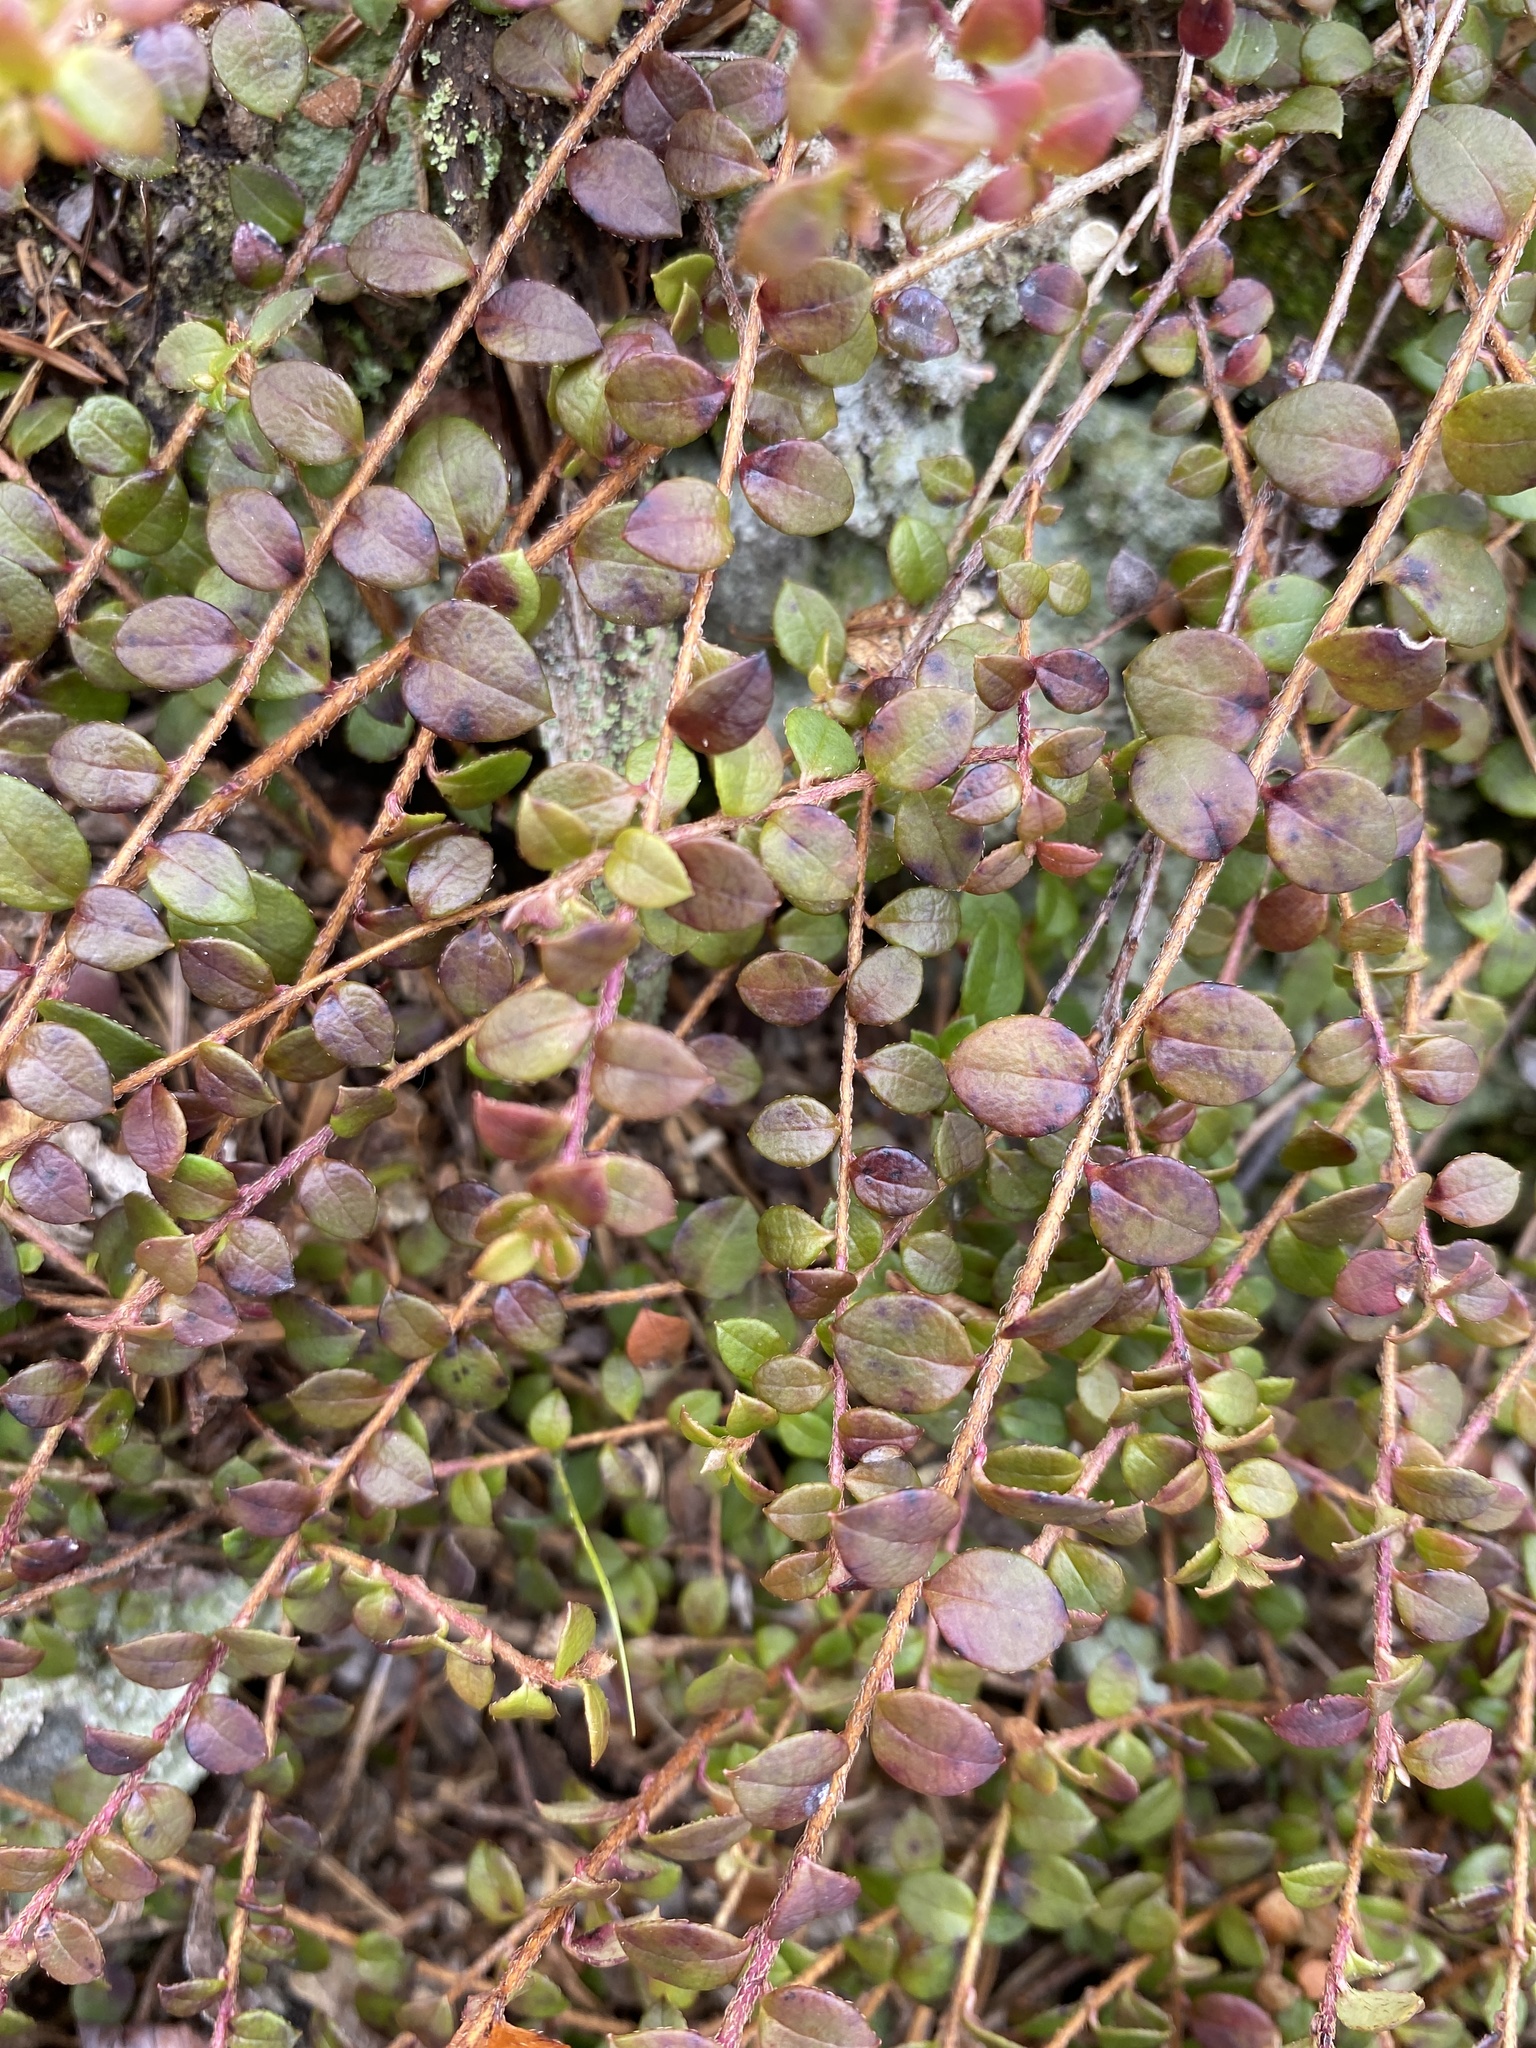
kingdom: Plantae
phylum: Tracheophyta
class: Magnoliopsida
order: Ericales
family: Ericaceae
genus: Gaultheria
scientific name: Gaultheria hispidula
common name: Cancer wintergreen
